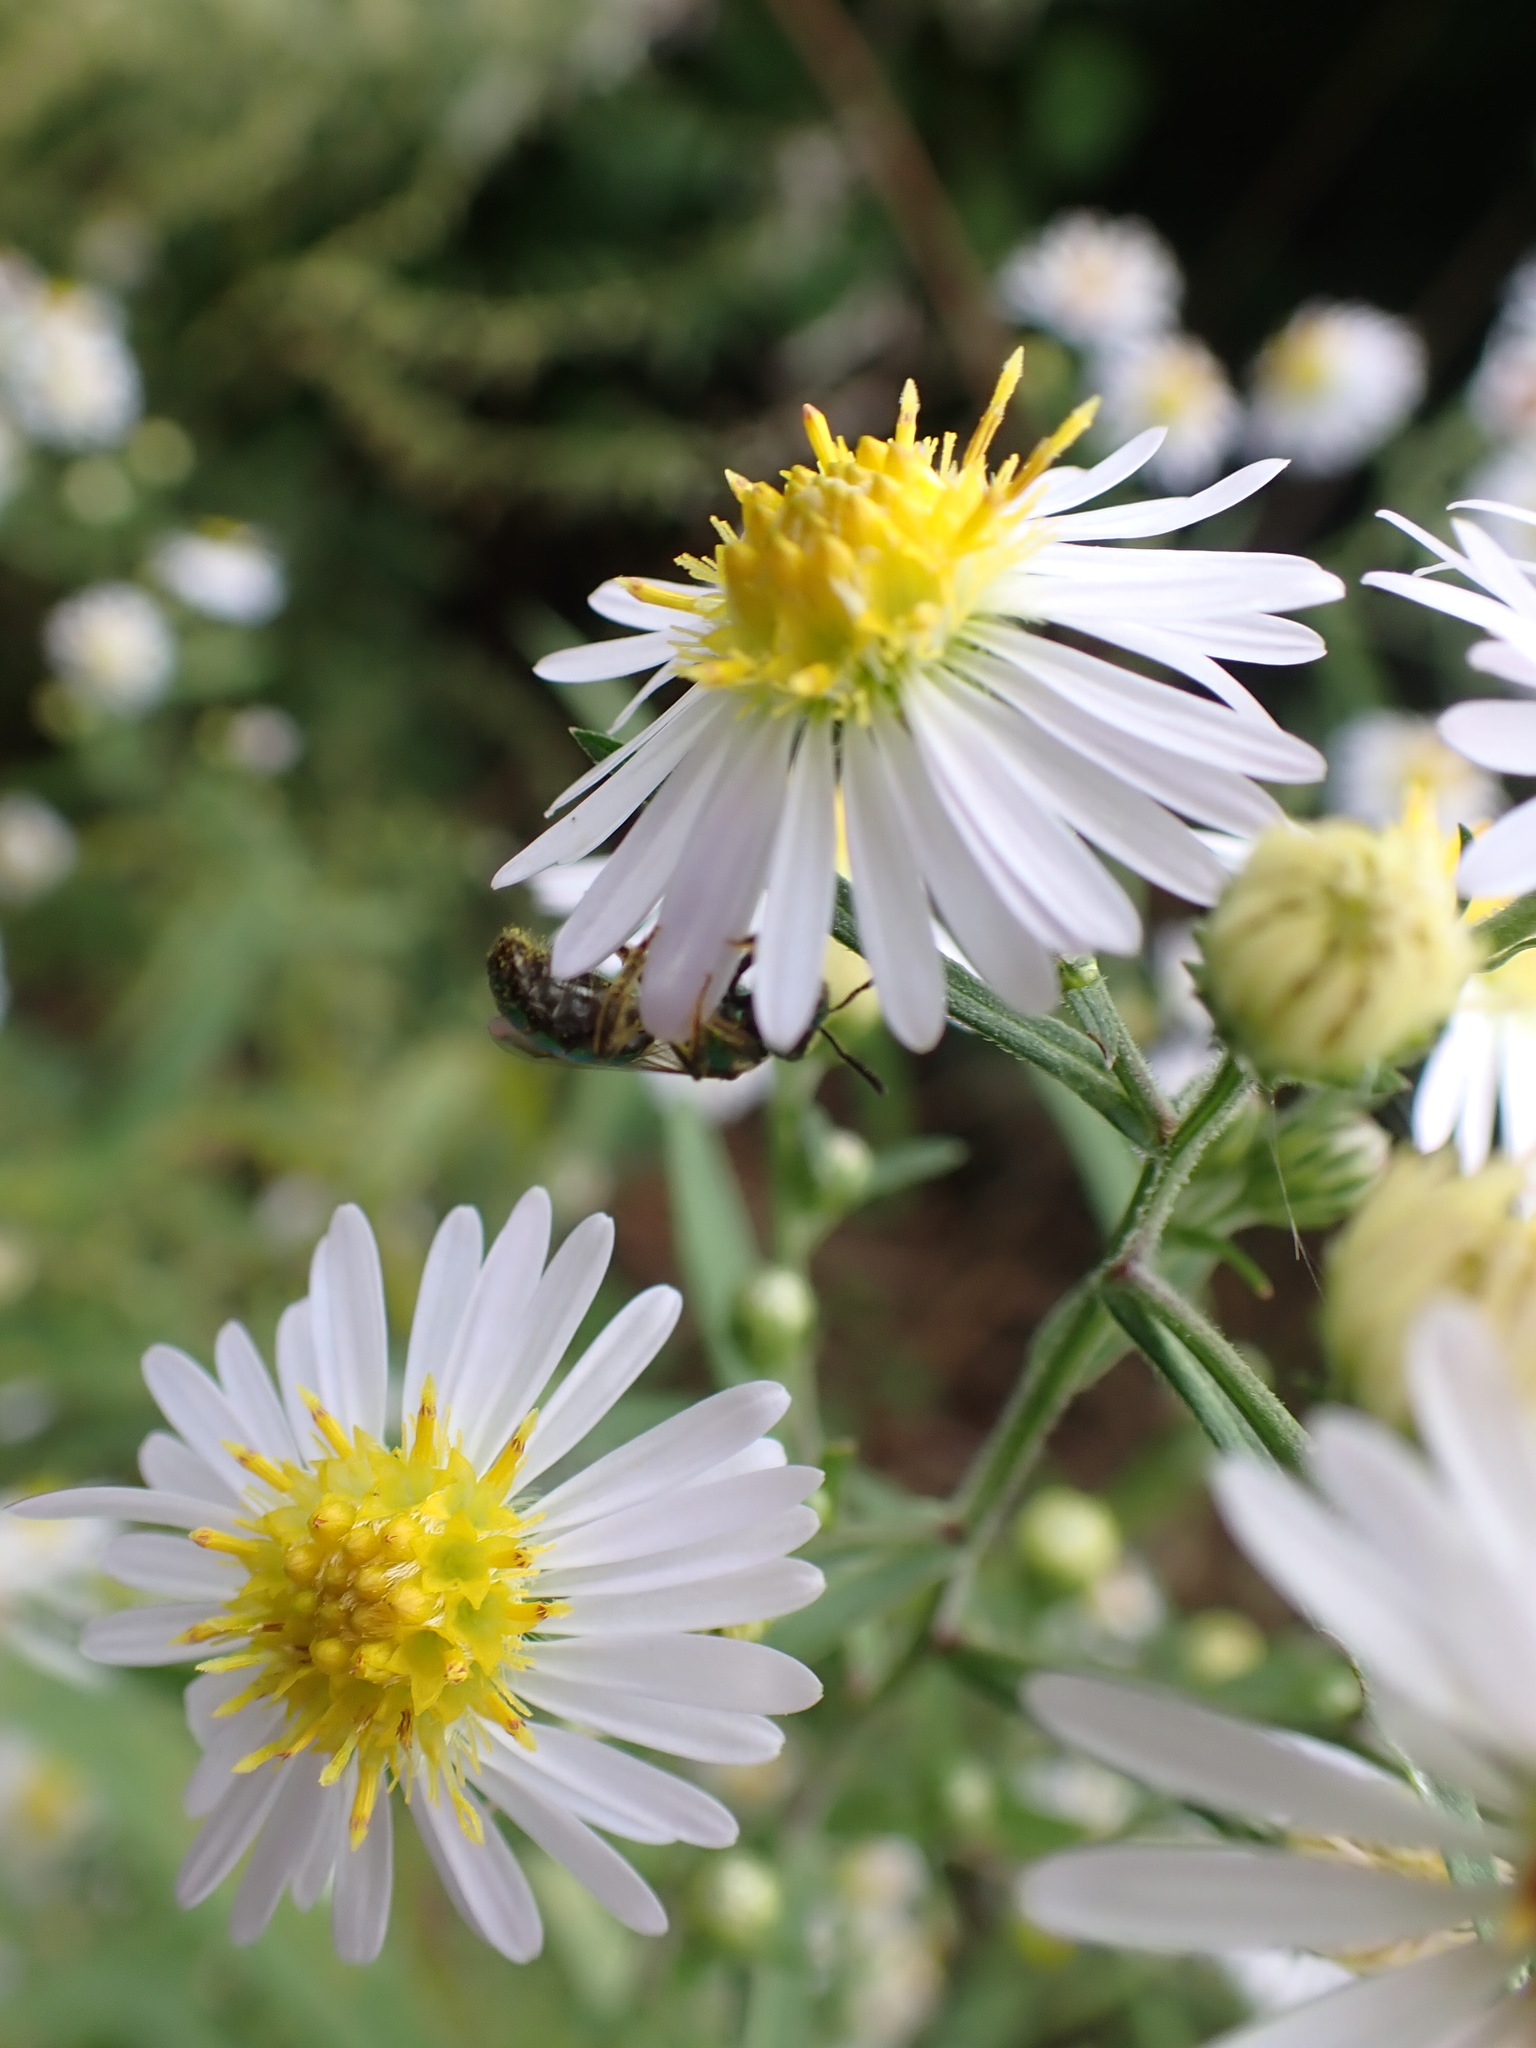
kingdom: Animalia
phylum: Arthropoda
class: Insecta
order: Hymenoptera
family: Halictidae
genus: Augochlora
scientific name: Augochlora pura
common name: Pure green sweat bee
